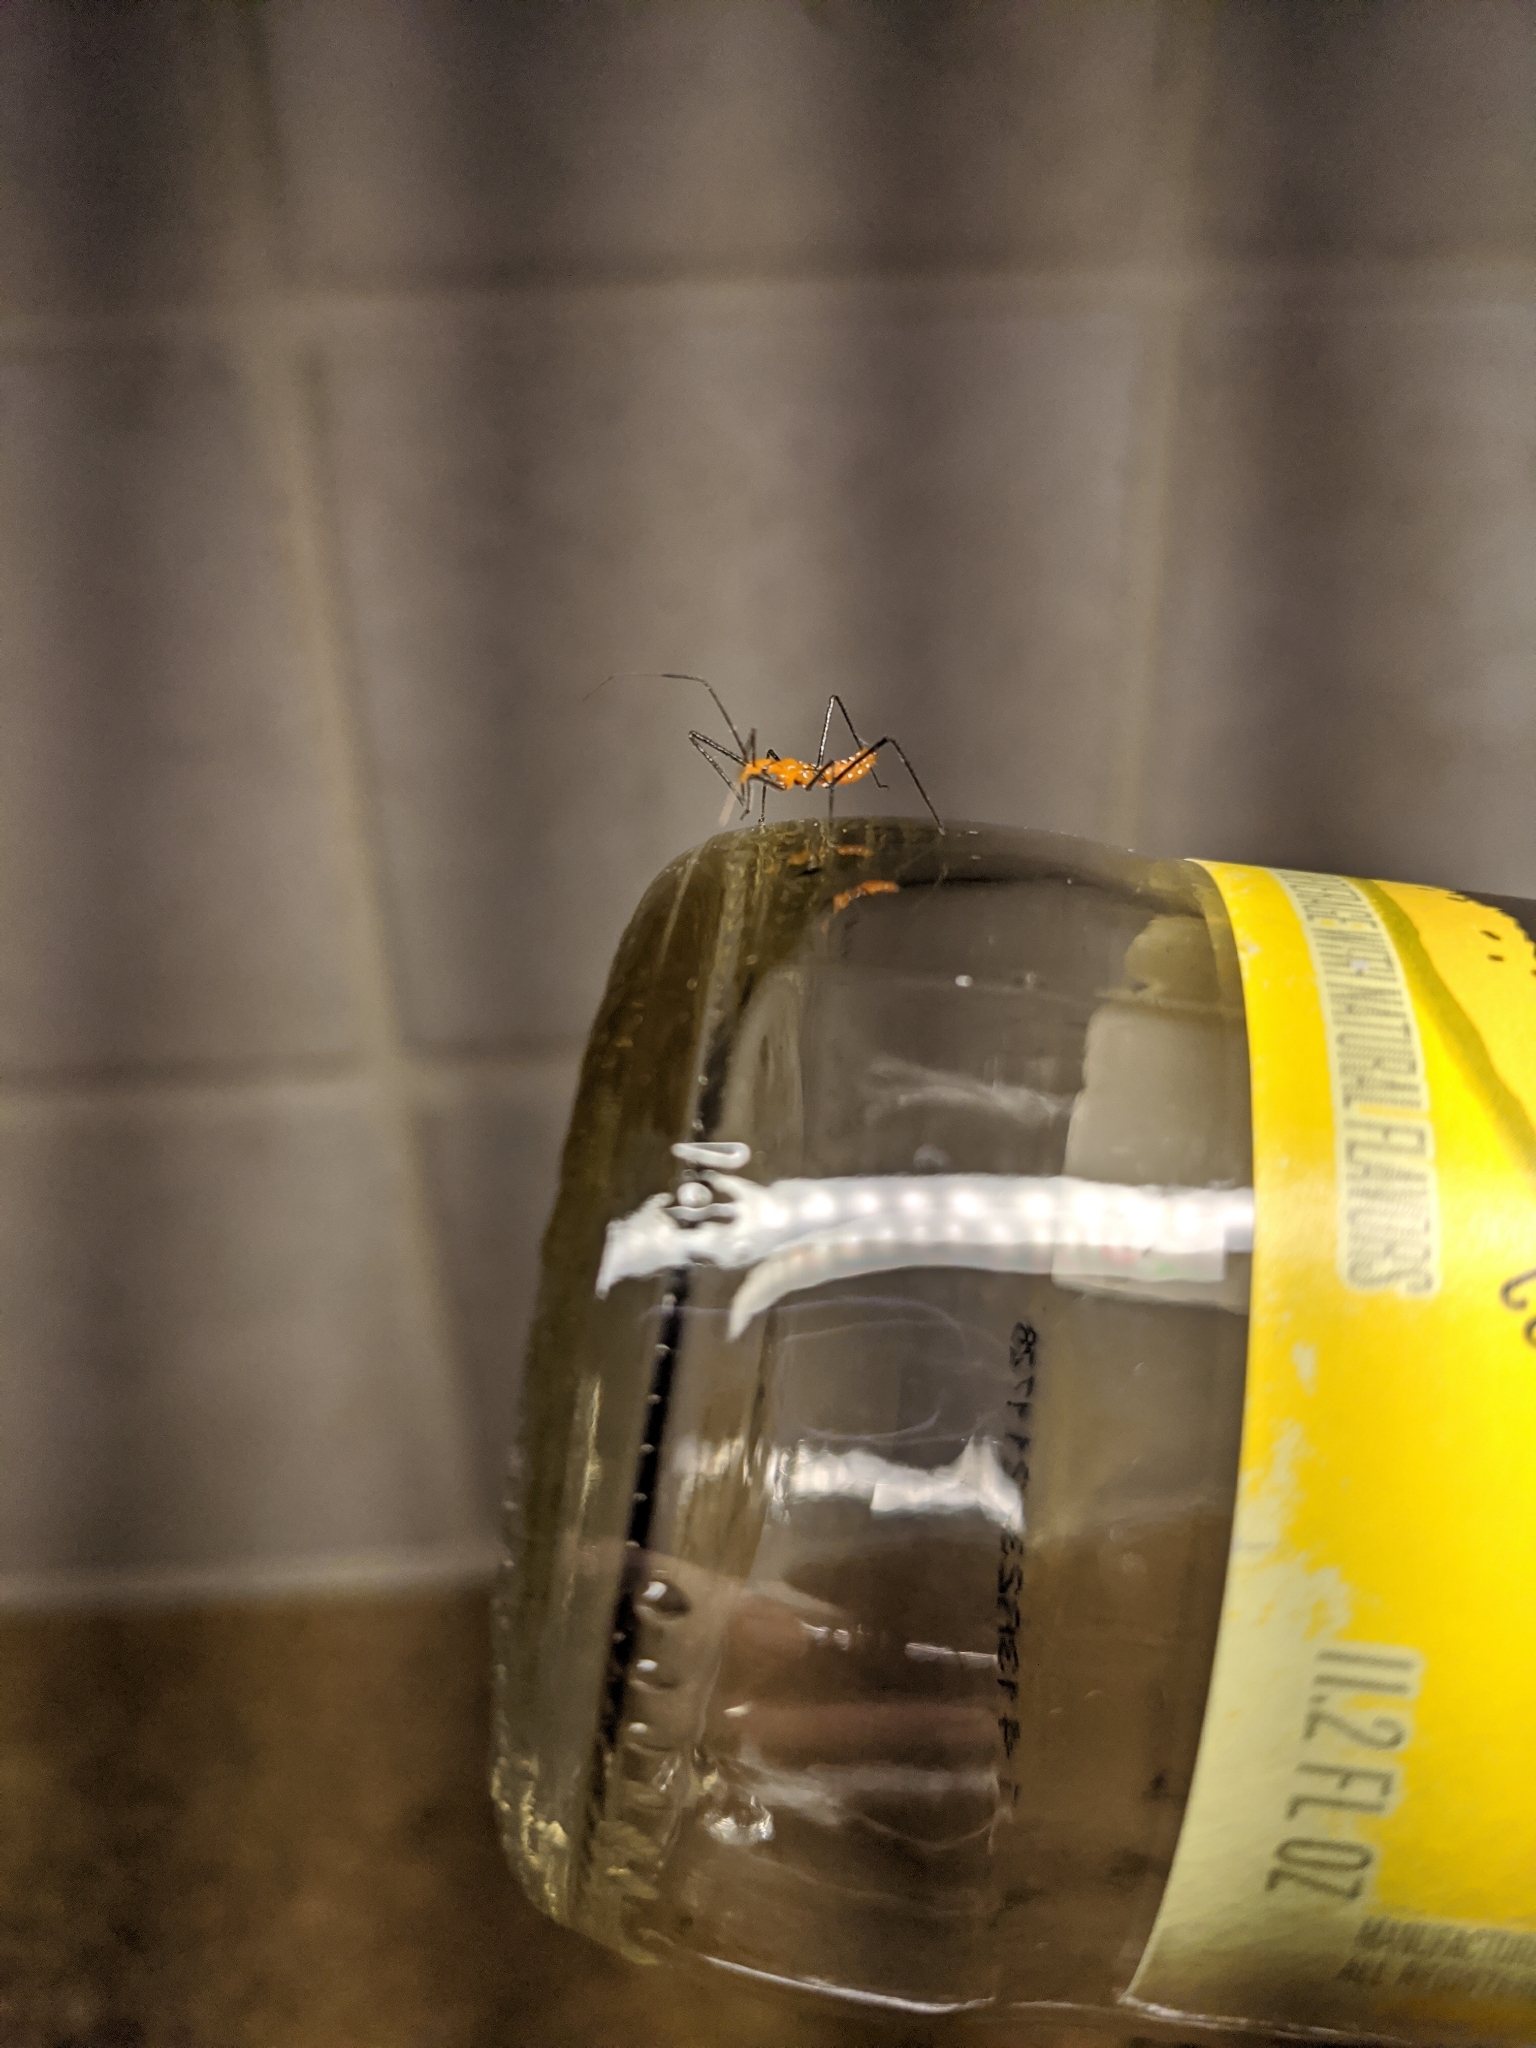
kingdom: Animalia
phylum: Arthropoda
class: Insecta
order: Hemiptera
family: Reduviidae
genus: Zelus
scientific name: Zelus longipes
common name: Milkweed assassin bug
